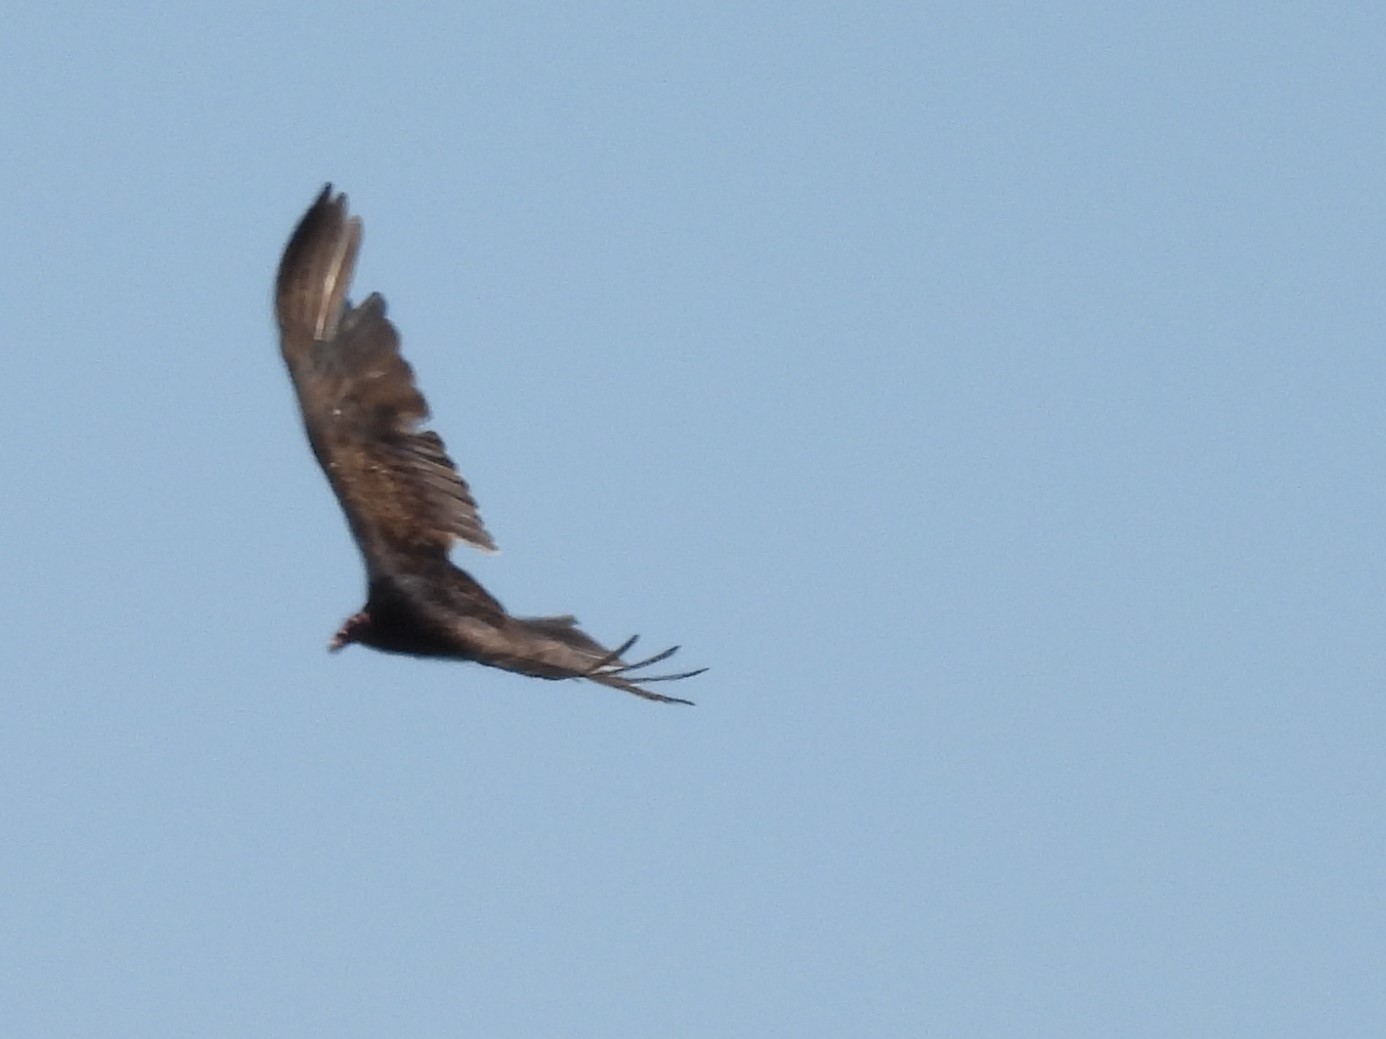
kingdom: Animalia
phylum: Chordata
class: Aves
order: Accipitriformes
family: Cathartidae
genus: Cathartes
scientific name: Cathartes aura
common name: Turkey vulture
